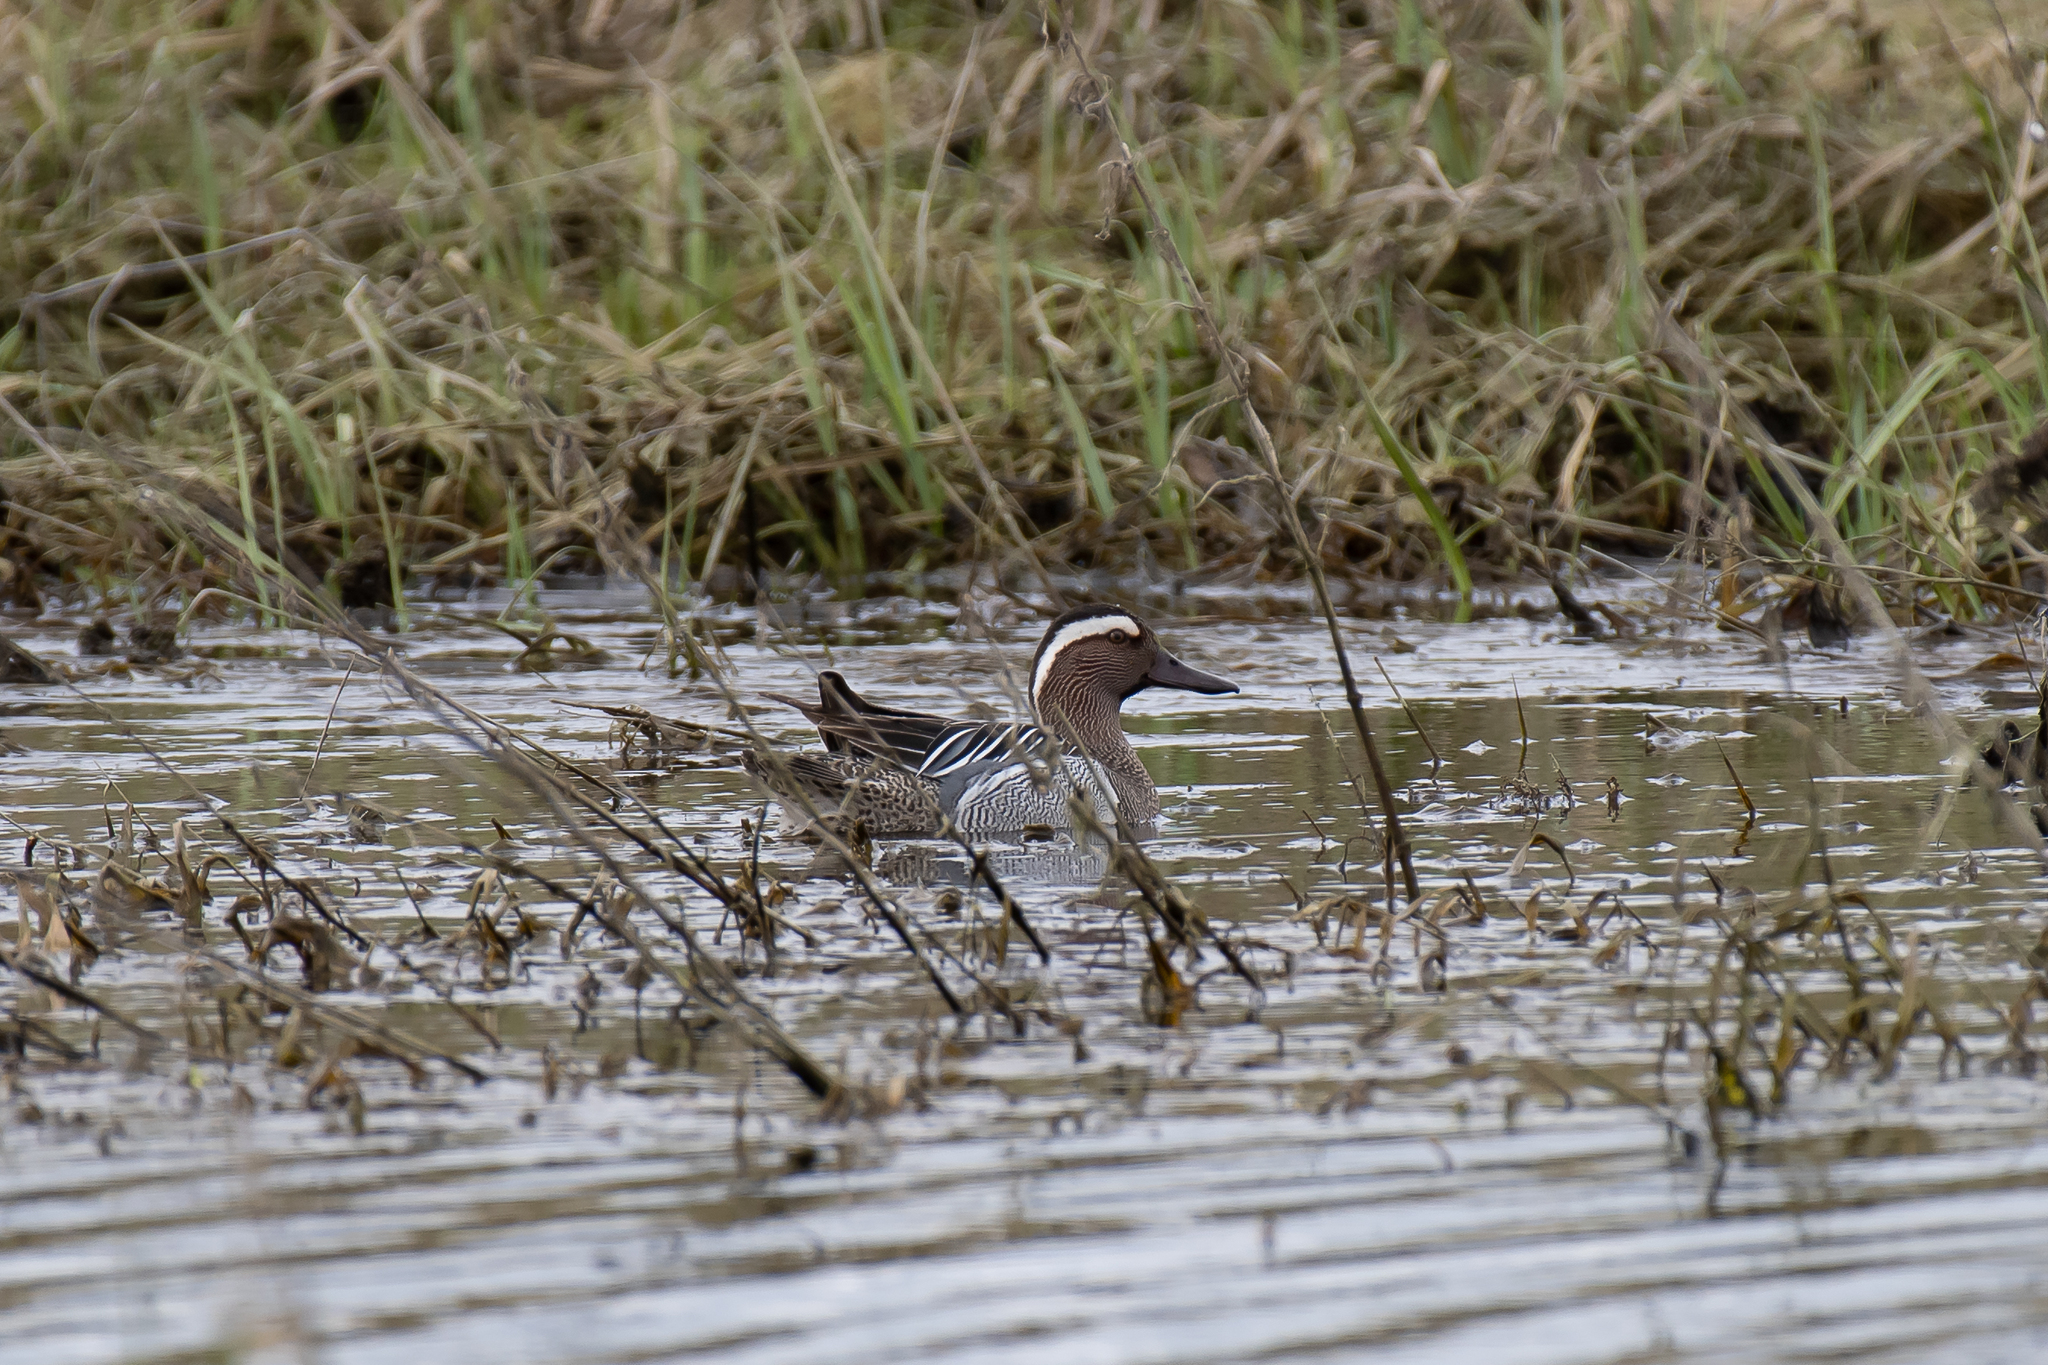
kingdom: Animalia
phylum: Chordata
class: Aves
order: Anseriformes
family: Anatidae
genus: Spatula
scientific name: Spatula querquedula
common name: Garganey
